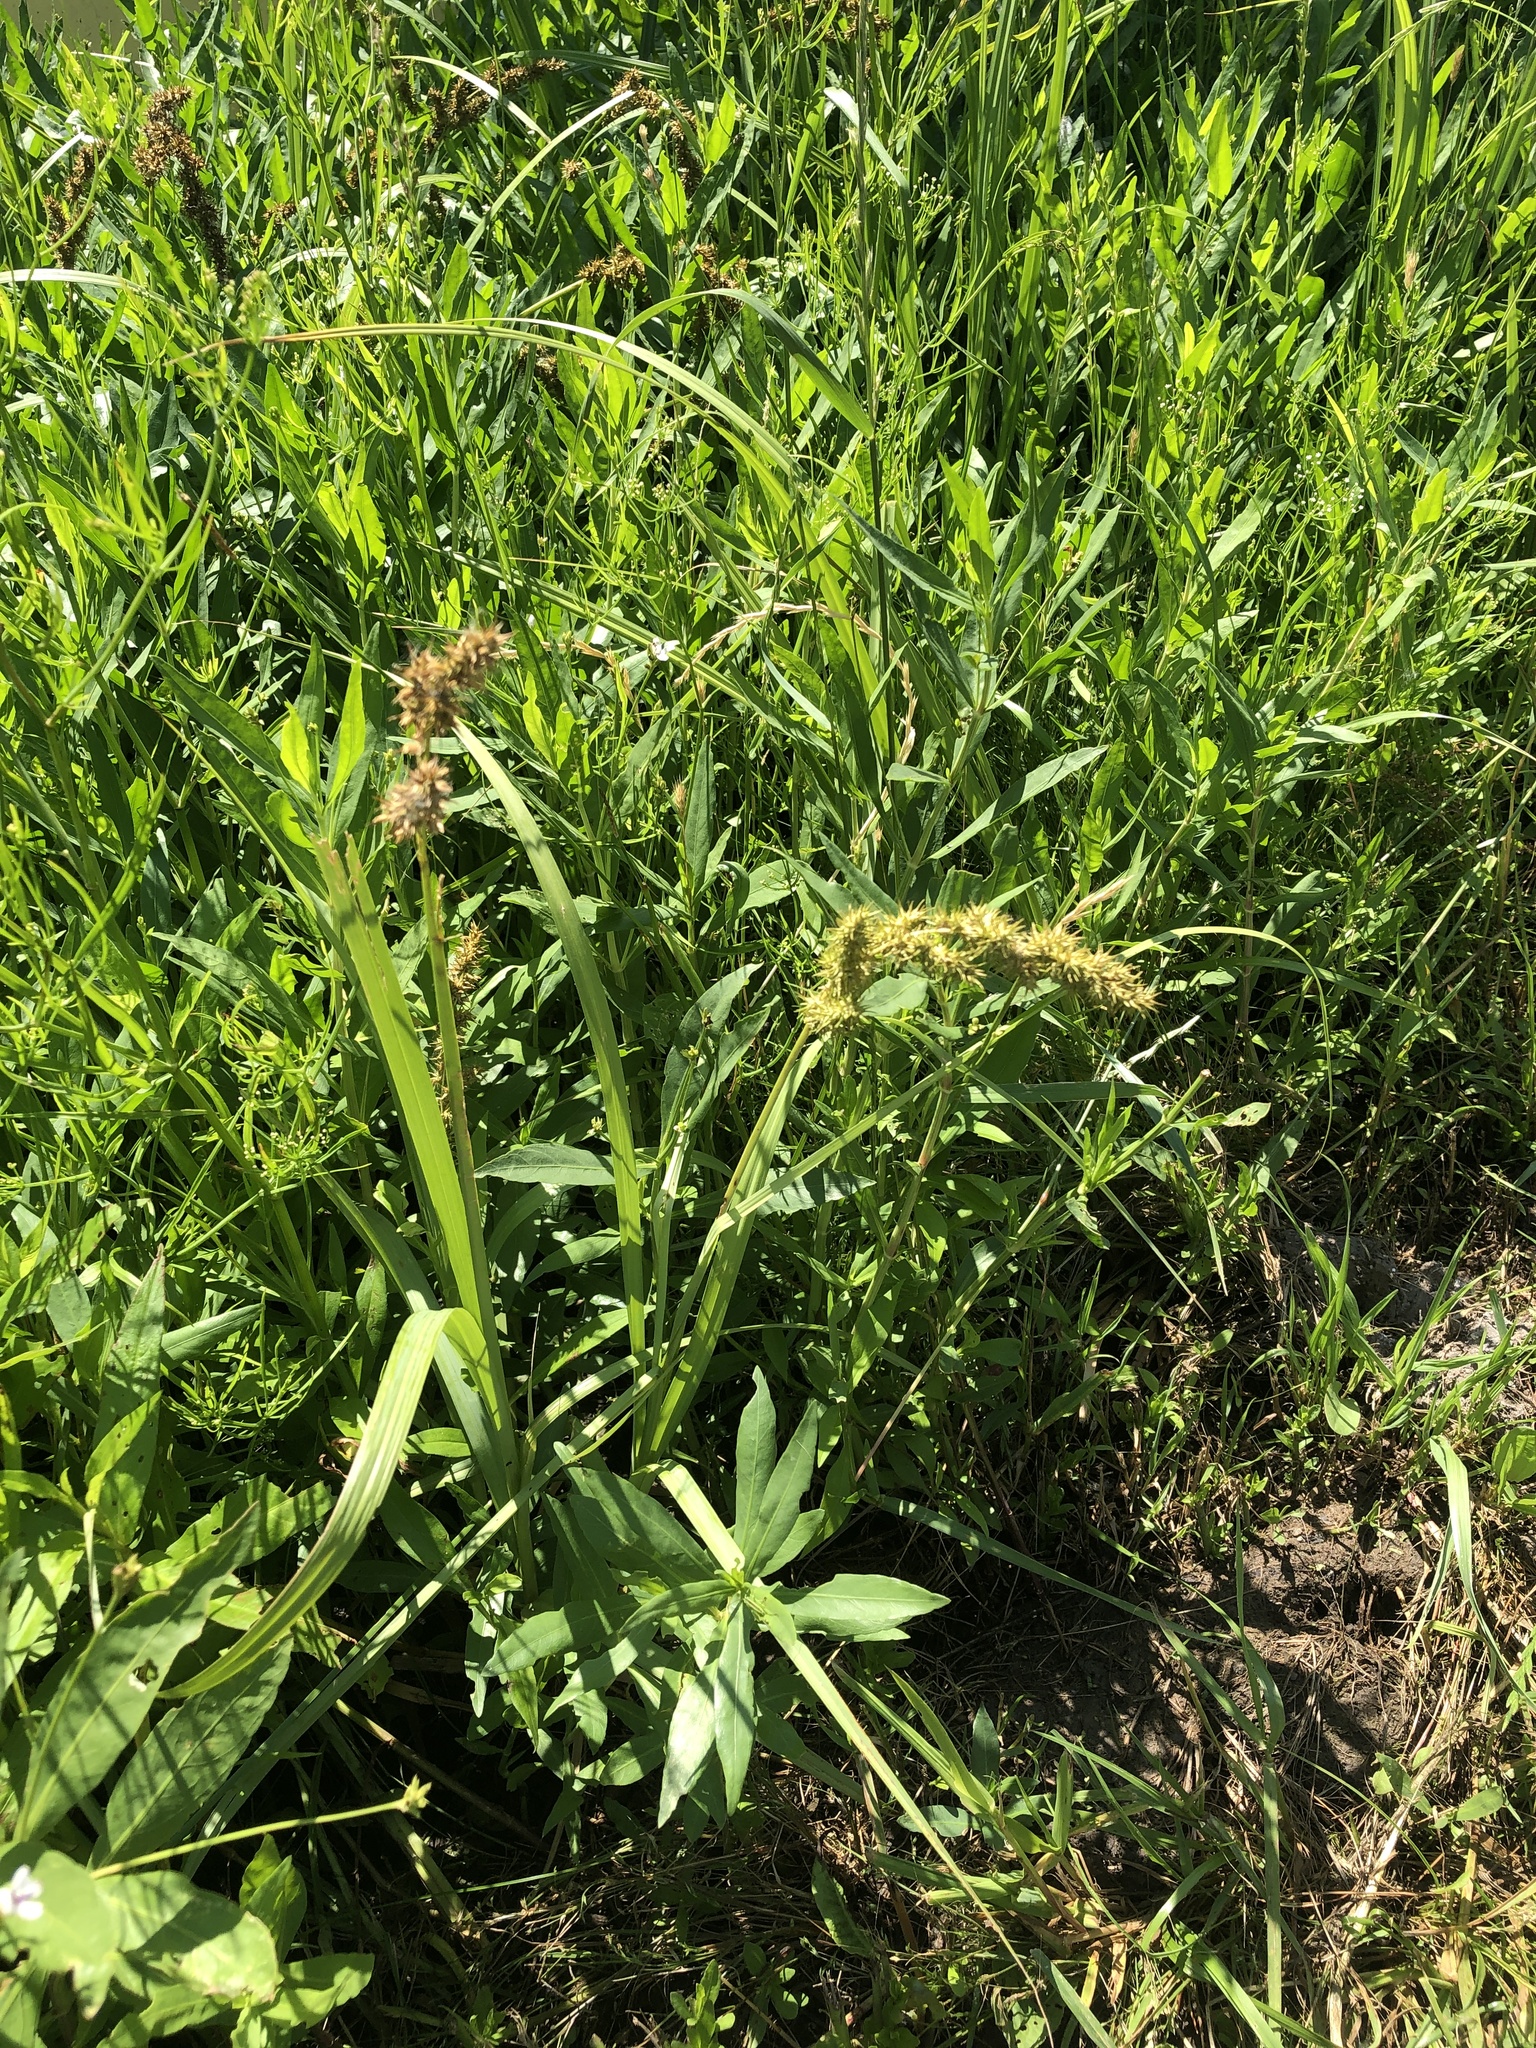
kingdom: Plantae
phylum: Tracheophyta
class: Liliopsida
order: Poales
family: Cyperaceae
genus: Carex
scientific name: Carex crus-corvi
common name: Crow-spur sedge
